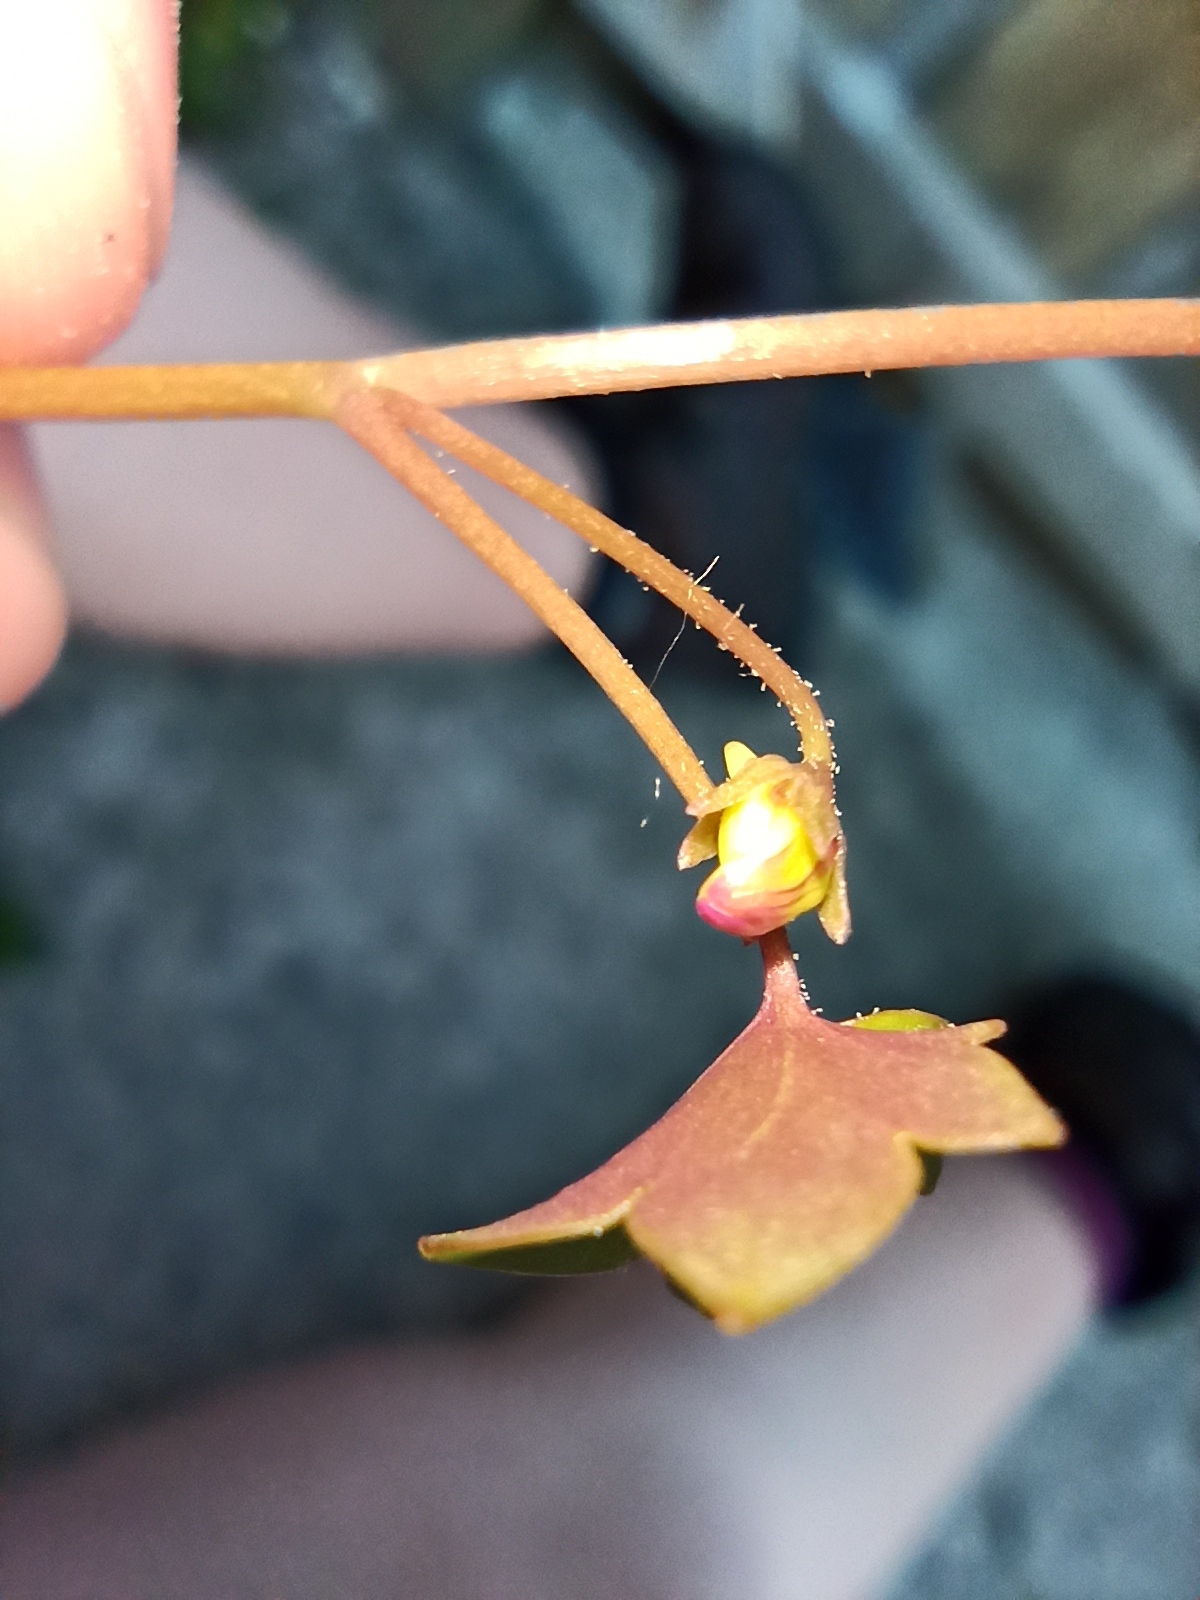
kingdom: Plantae
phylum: Tracheophyta
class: Magnoliopsida
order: Lamiales
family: Plantaginaceae
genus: Cymbalaria
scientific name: Cymbalaria muralis
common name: Ivy-leaved toadflax
